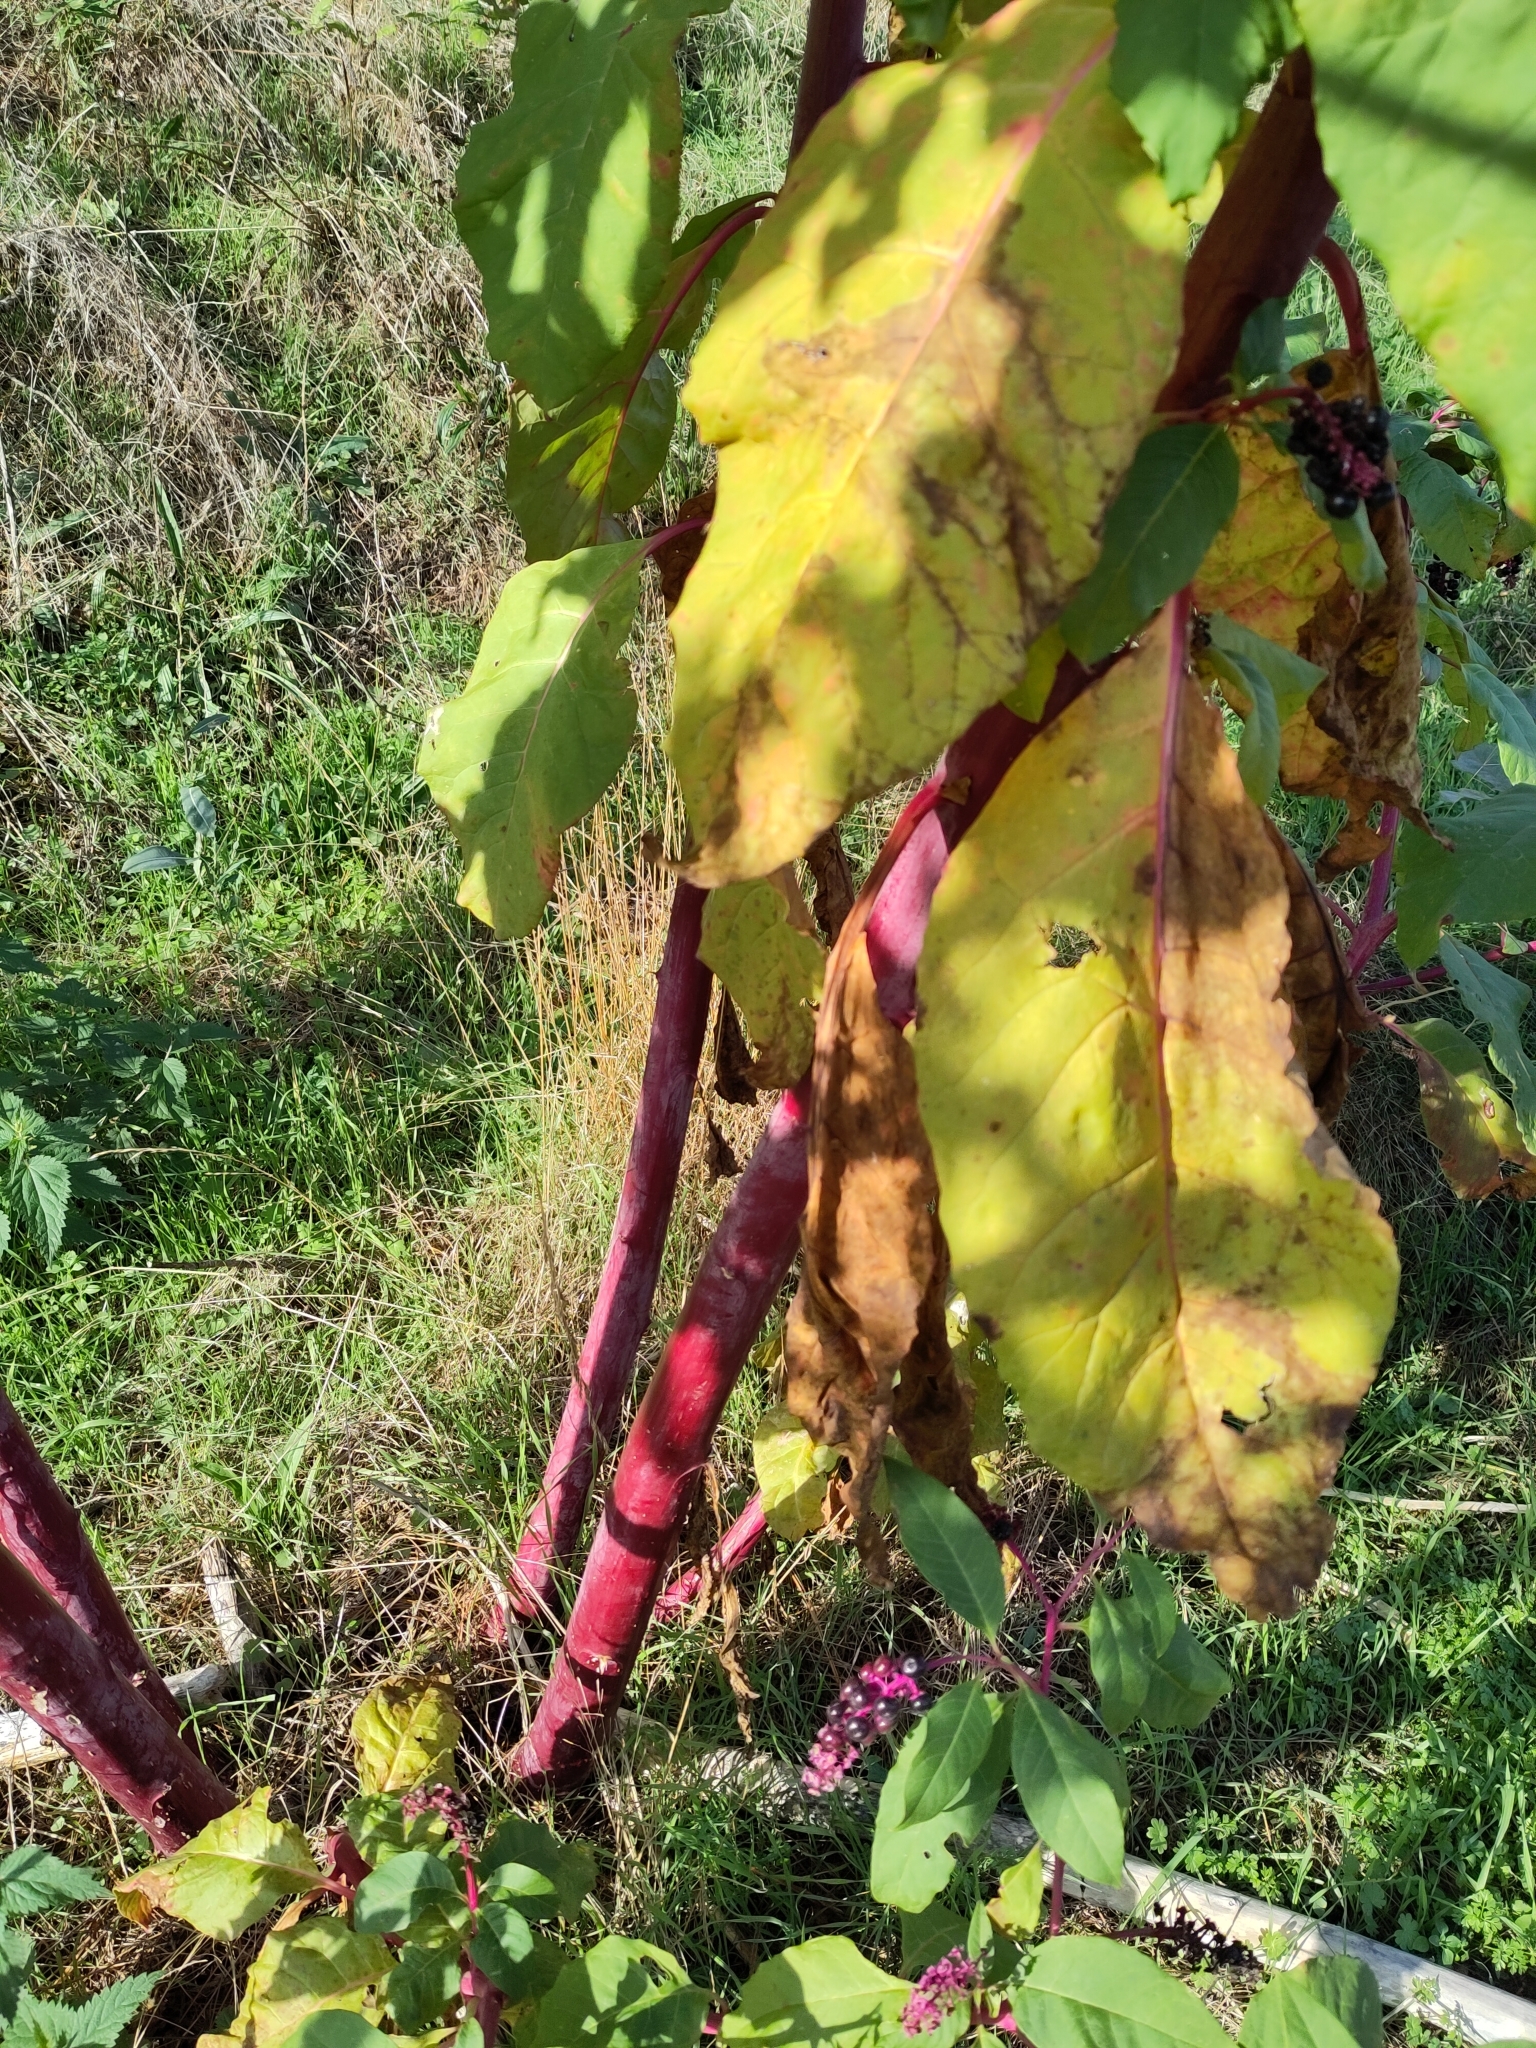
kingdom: Plantae
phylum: Tracheophyta
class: Magnoliopsida
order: Caryophyllales
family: Phytolaccaceae
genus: Phytolacca
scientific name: Phytolacca americana
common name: American pokeweed
